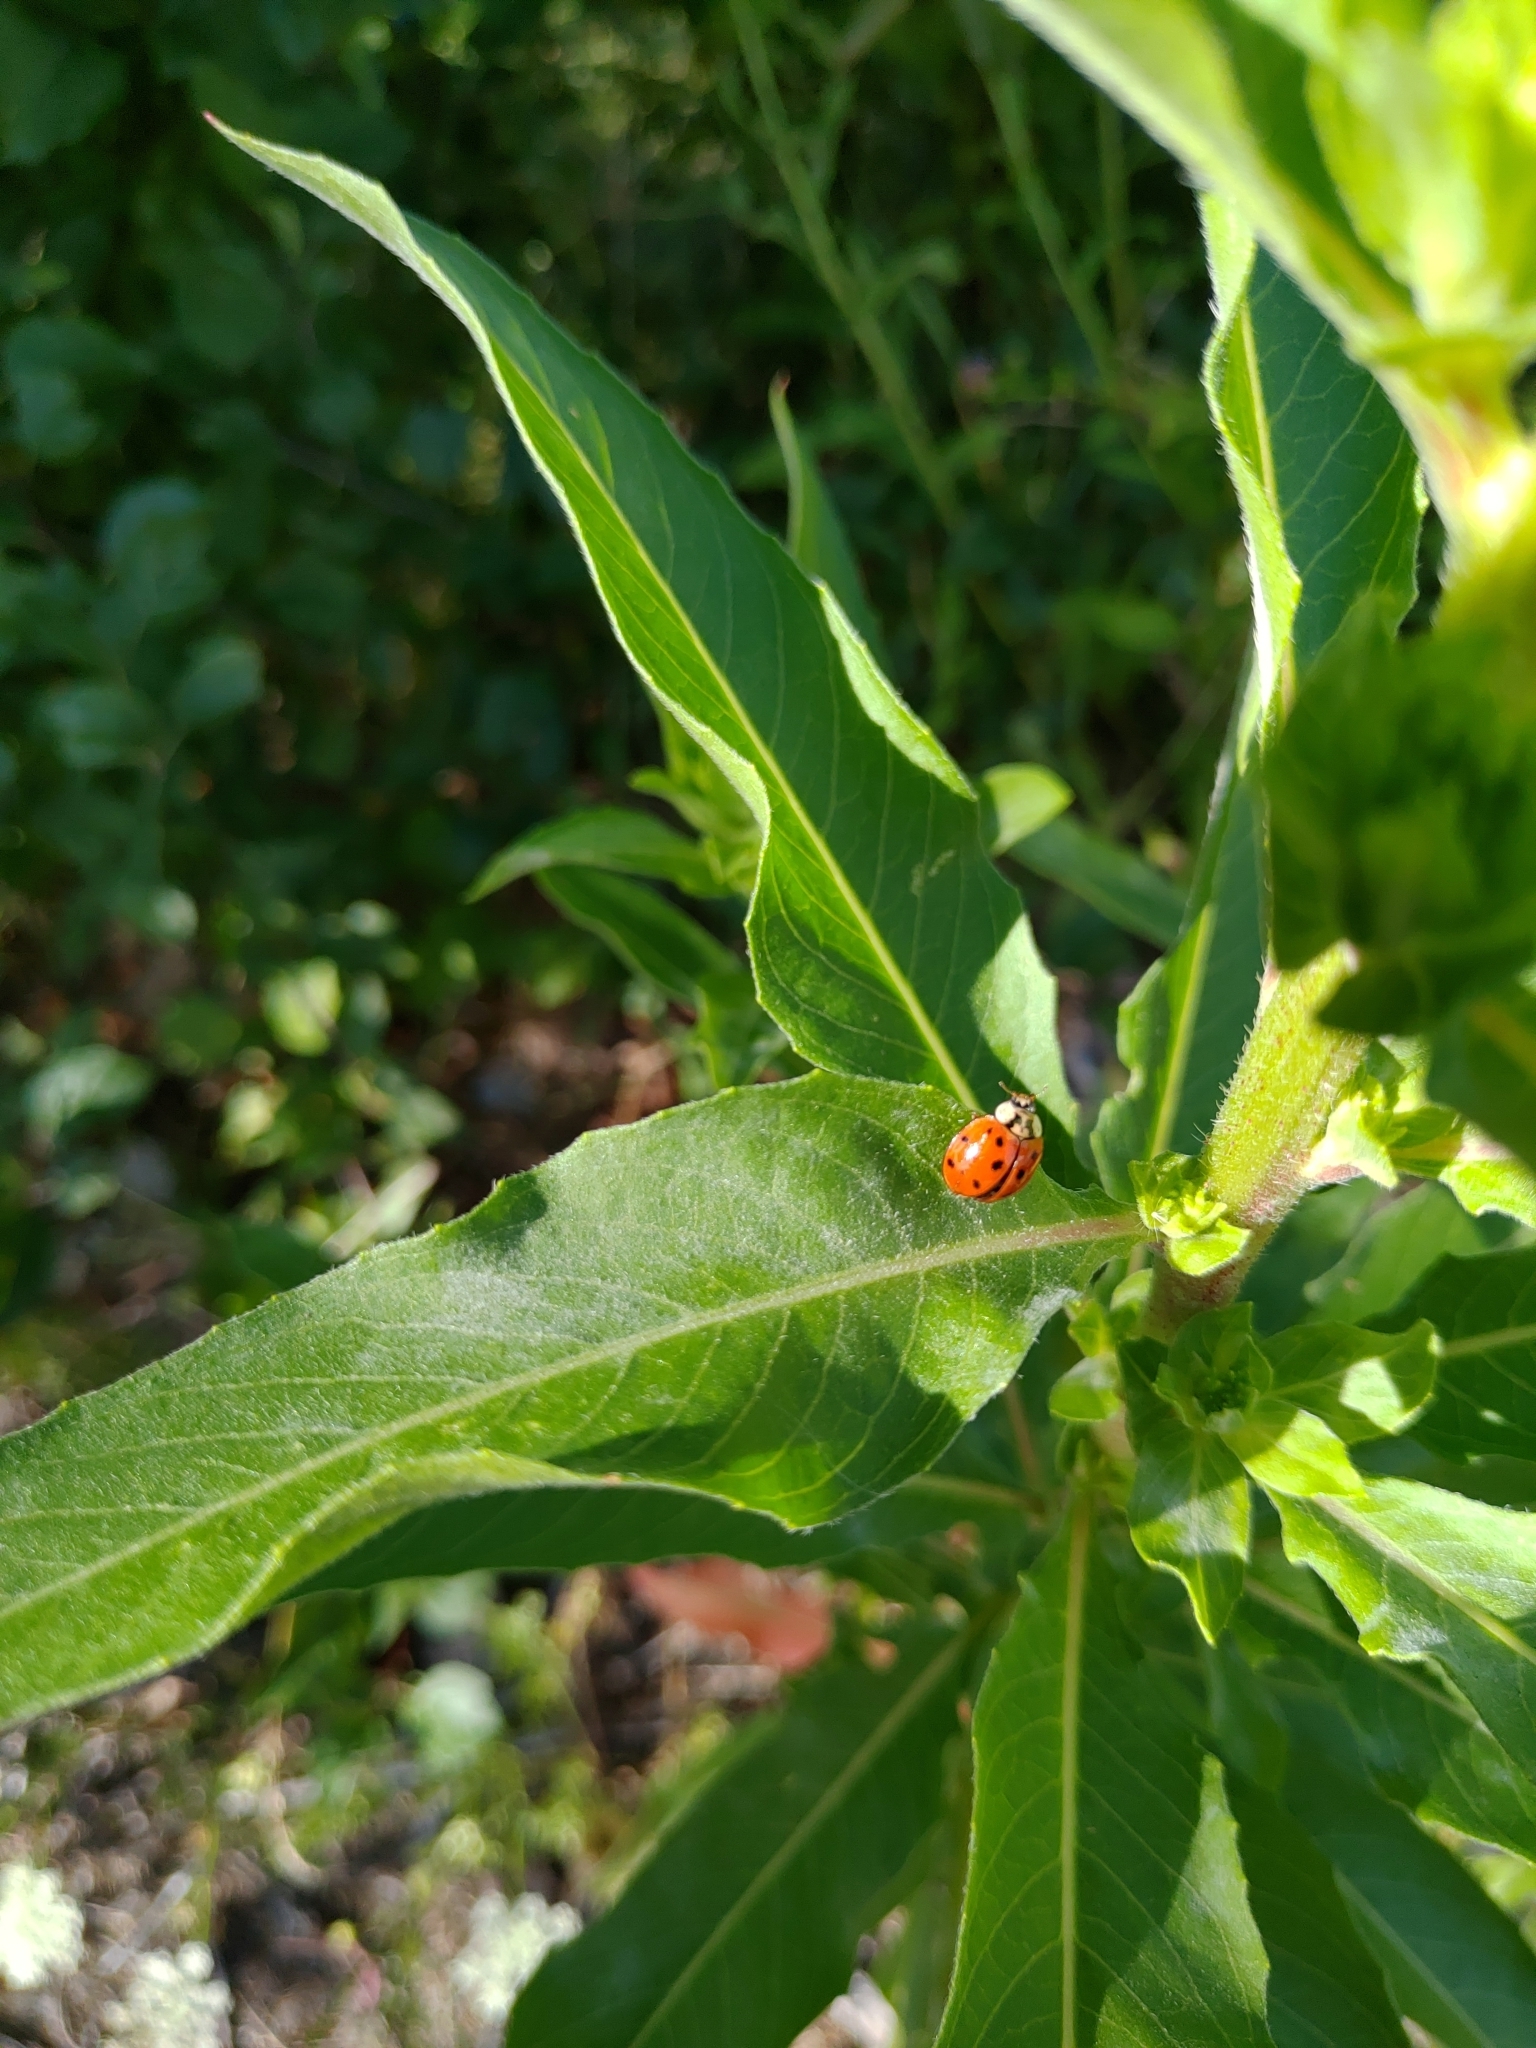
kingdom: Animalia
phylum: Arthropoda
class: Insecta
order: Coleoptera
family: Coccinellidae
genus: Harmonia
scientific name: Harmonia axyridis
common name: Harlequin ladybird
